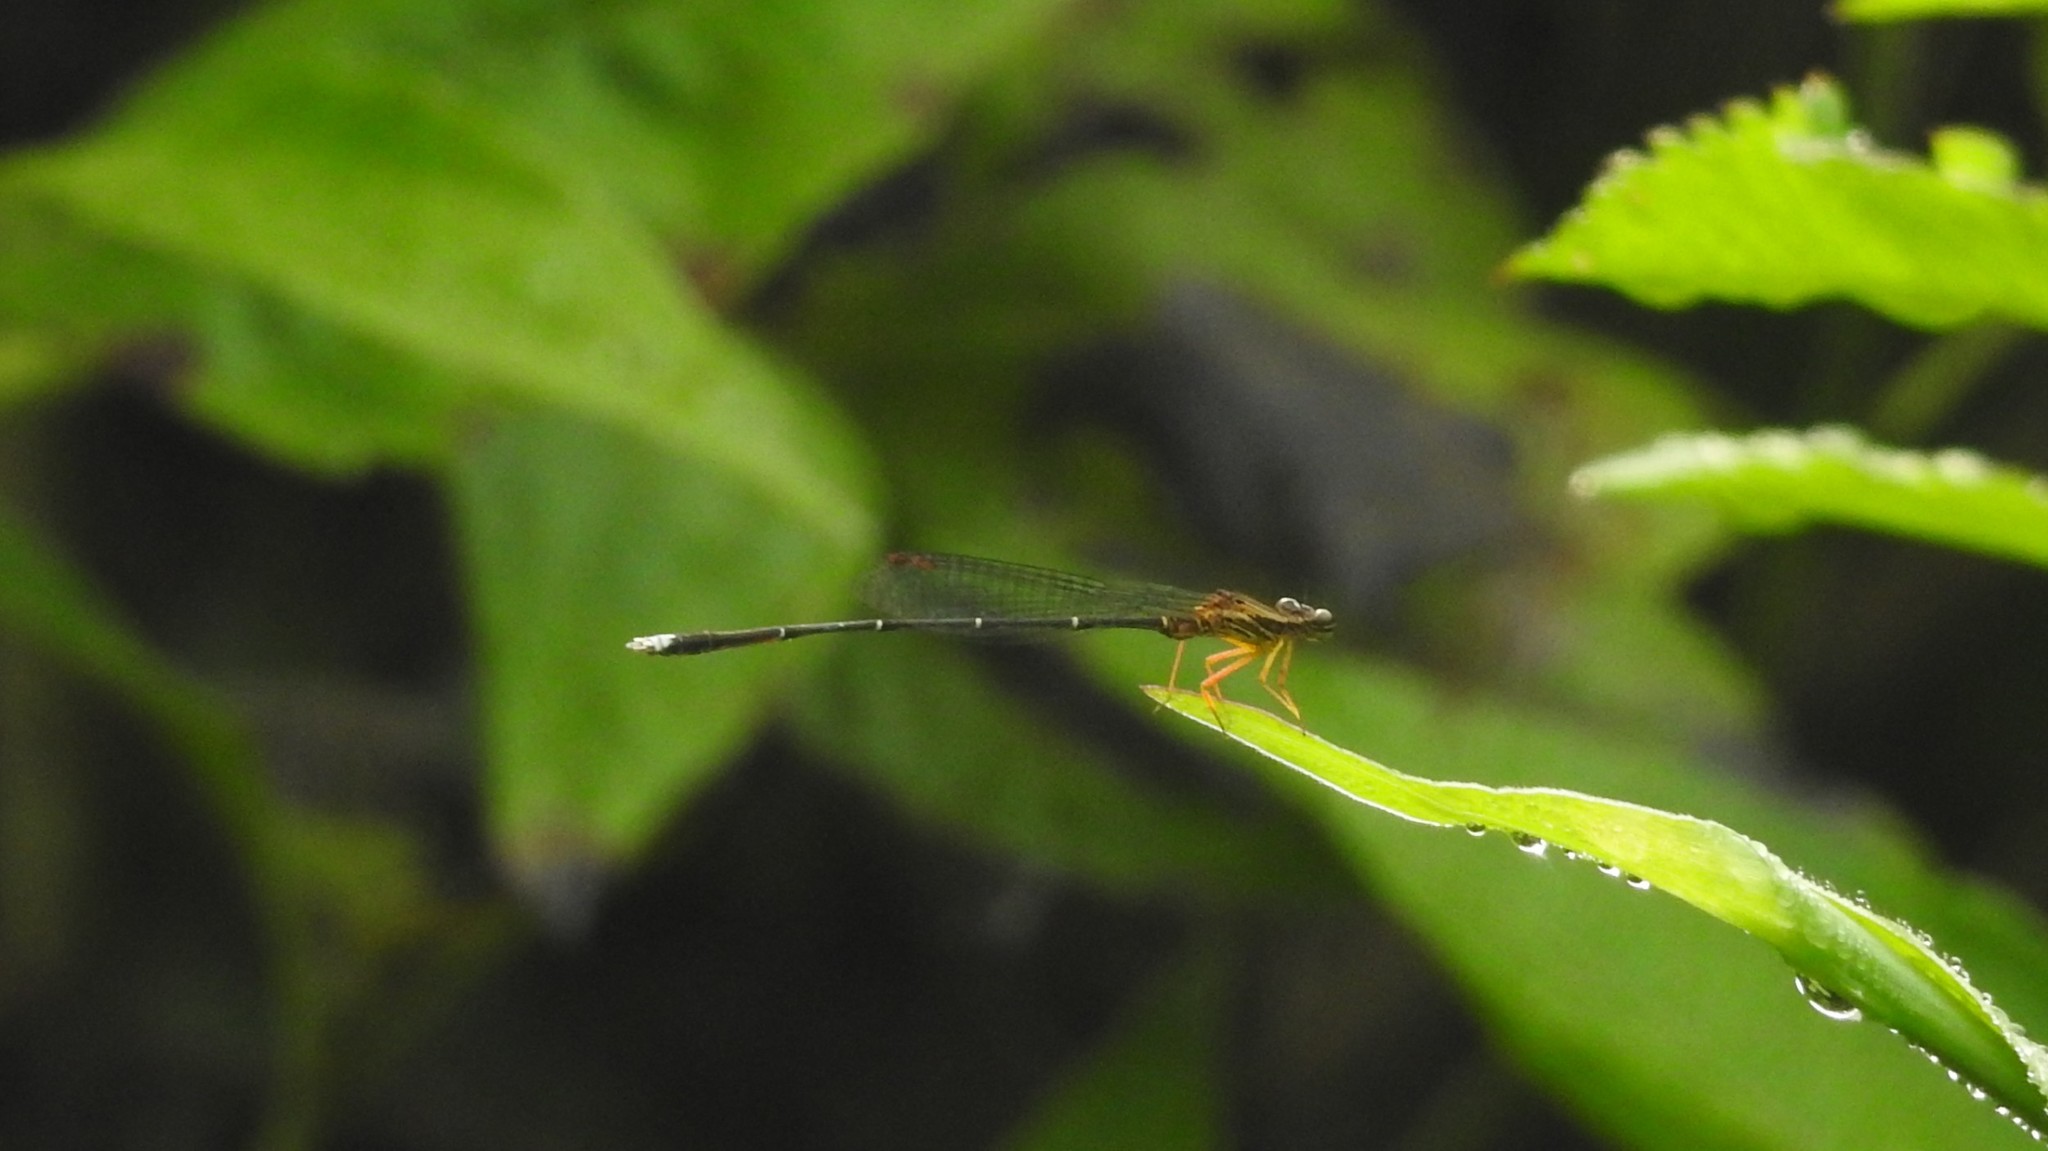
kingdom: Animalia
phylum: Arthropoda
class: Insecta
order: Odonata
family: Platycnemididae
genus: Copera
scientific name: Copera vittata
